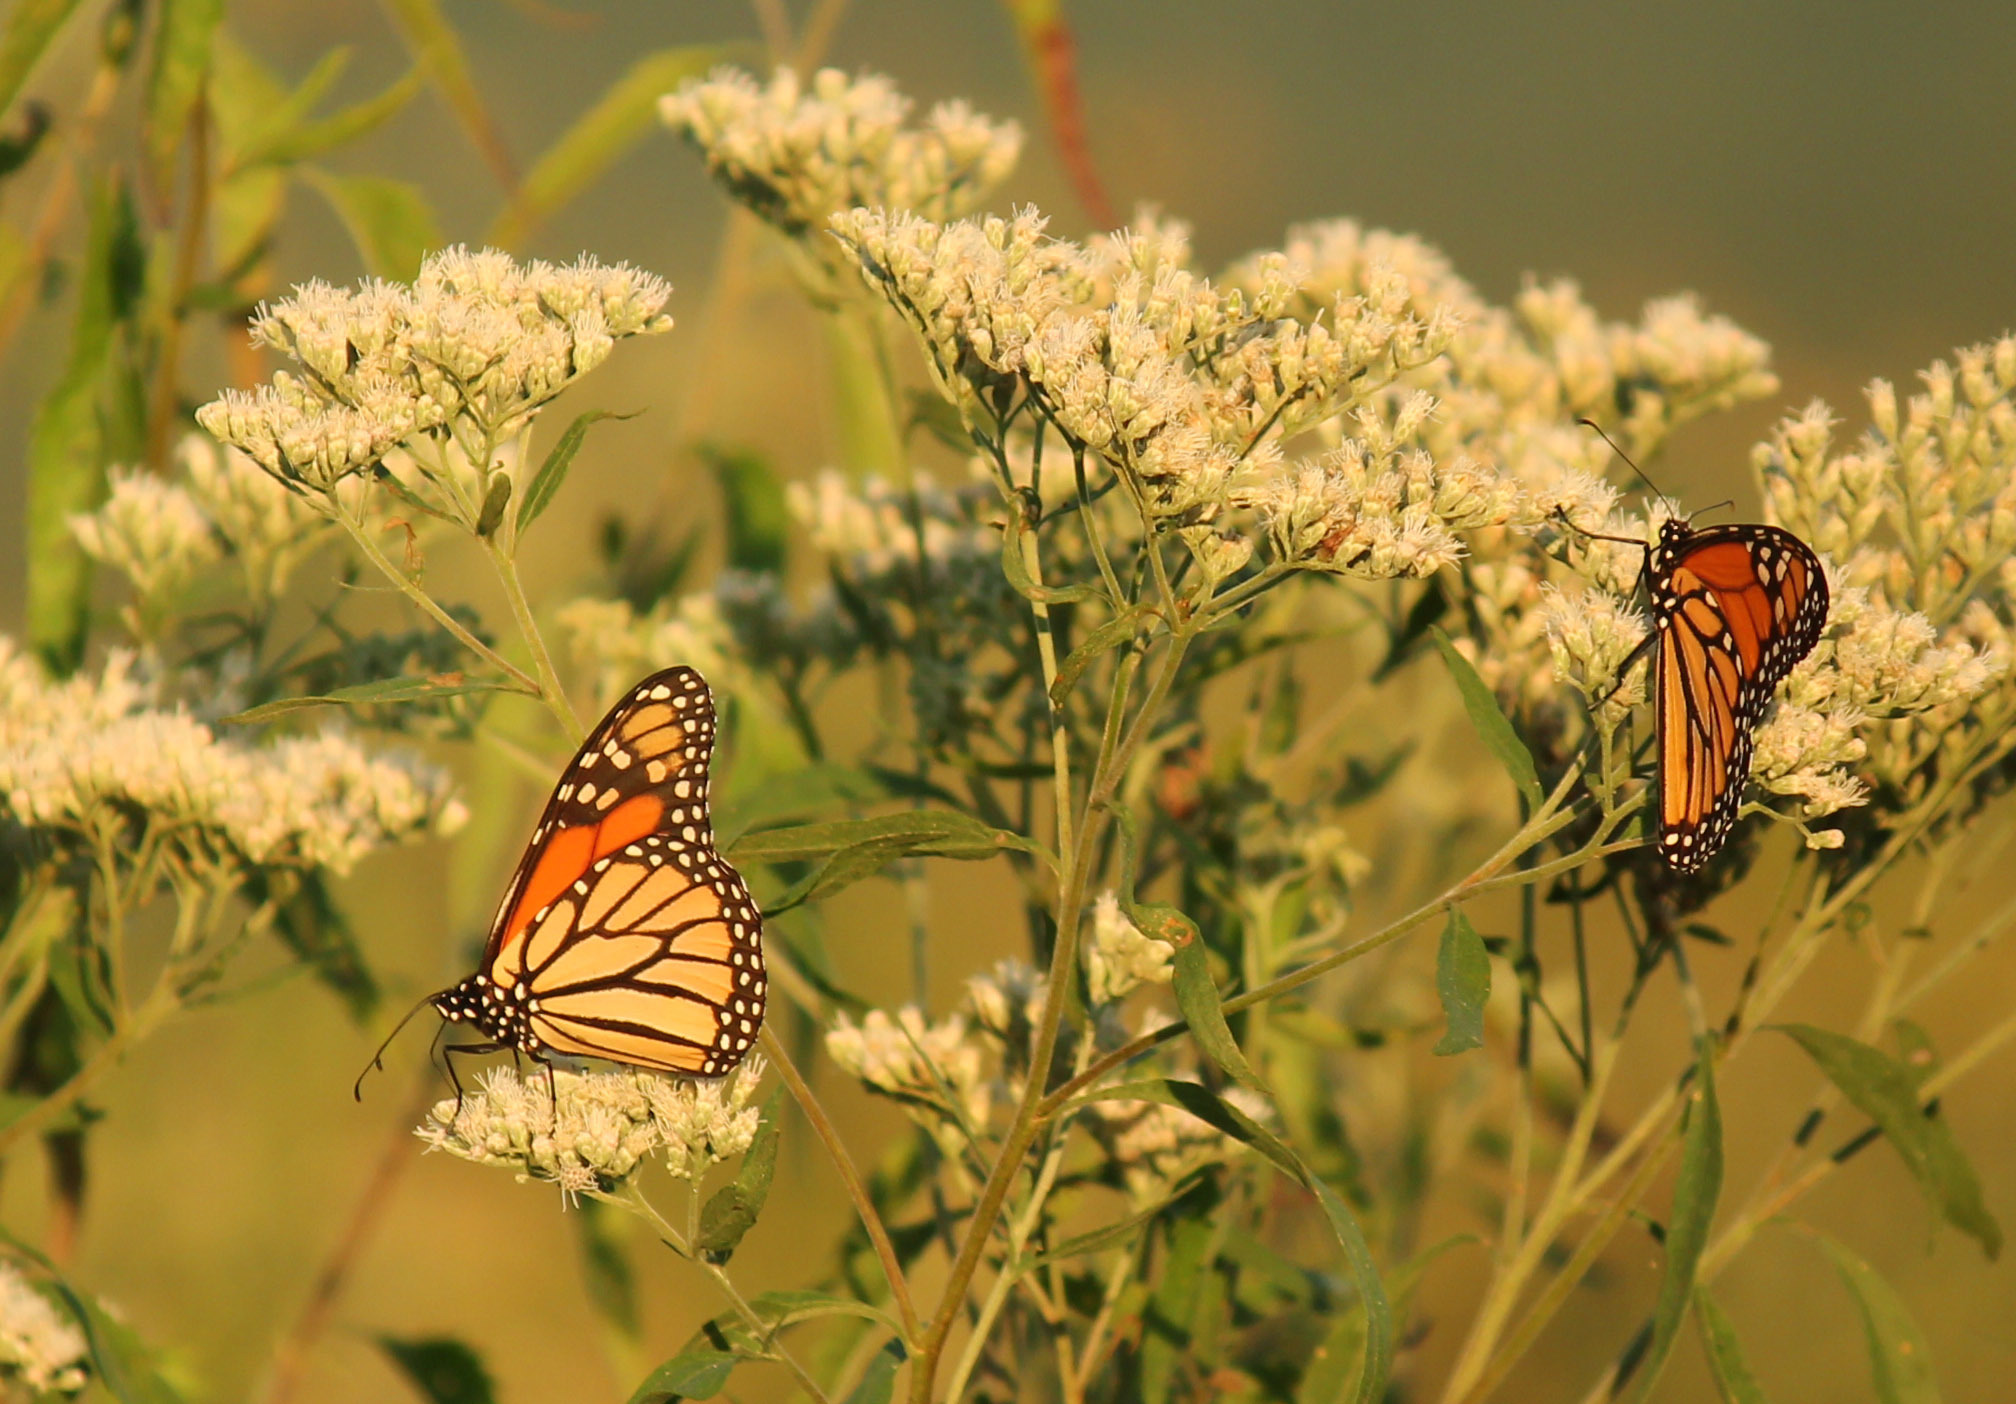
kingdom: Animalia
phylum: Arthropoda
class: Insecta
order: Lepidoptera
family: Nymphalidae
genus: Danaus
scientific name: Danaus plexippus
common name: Monarch
